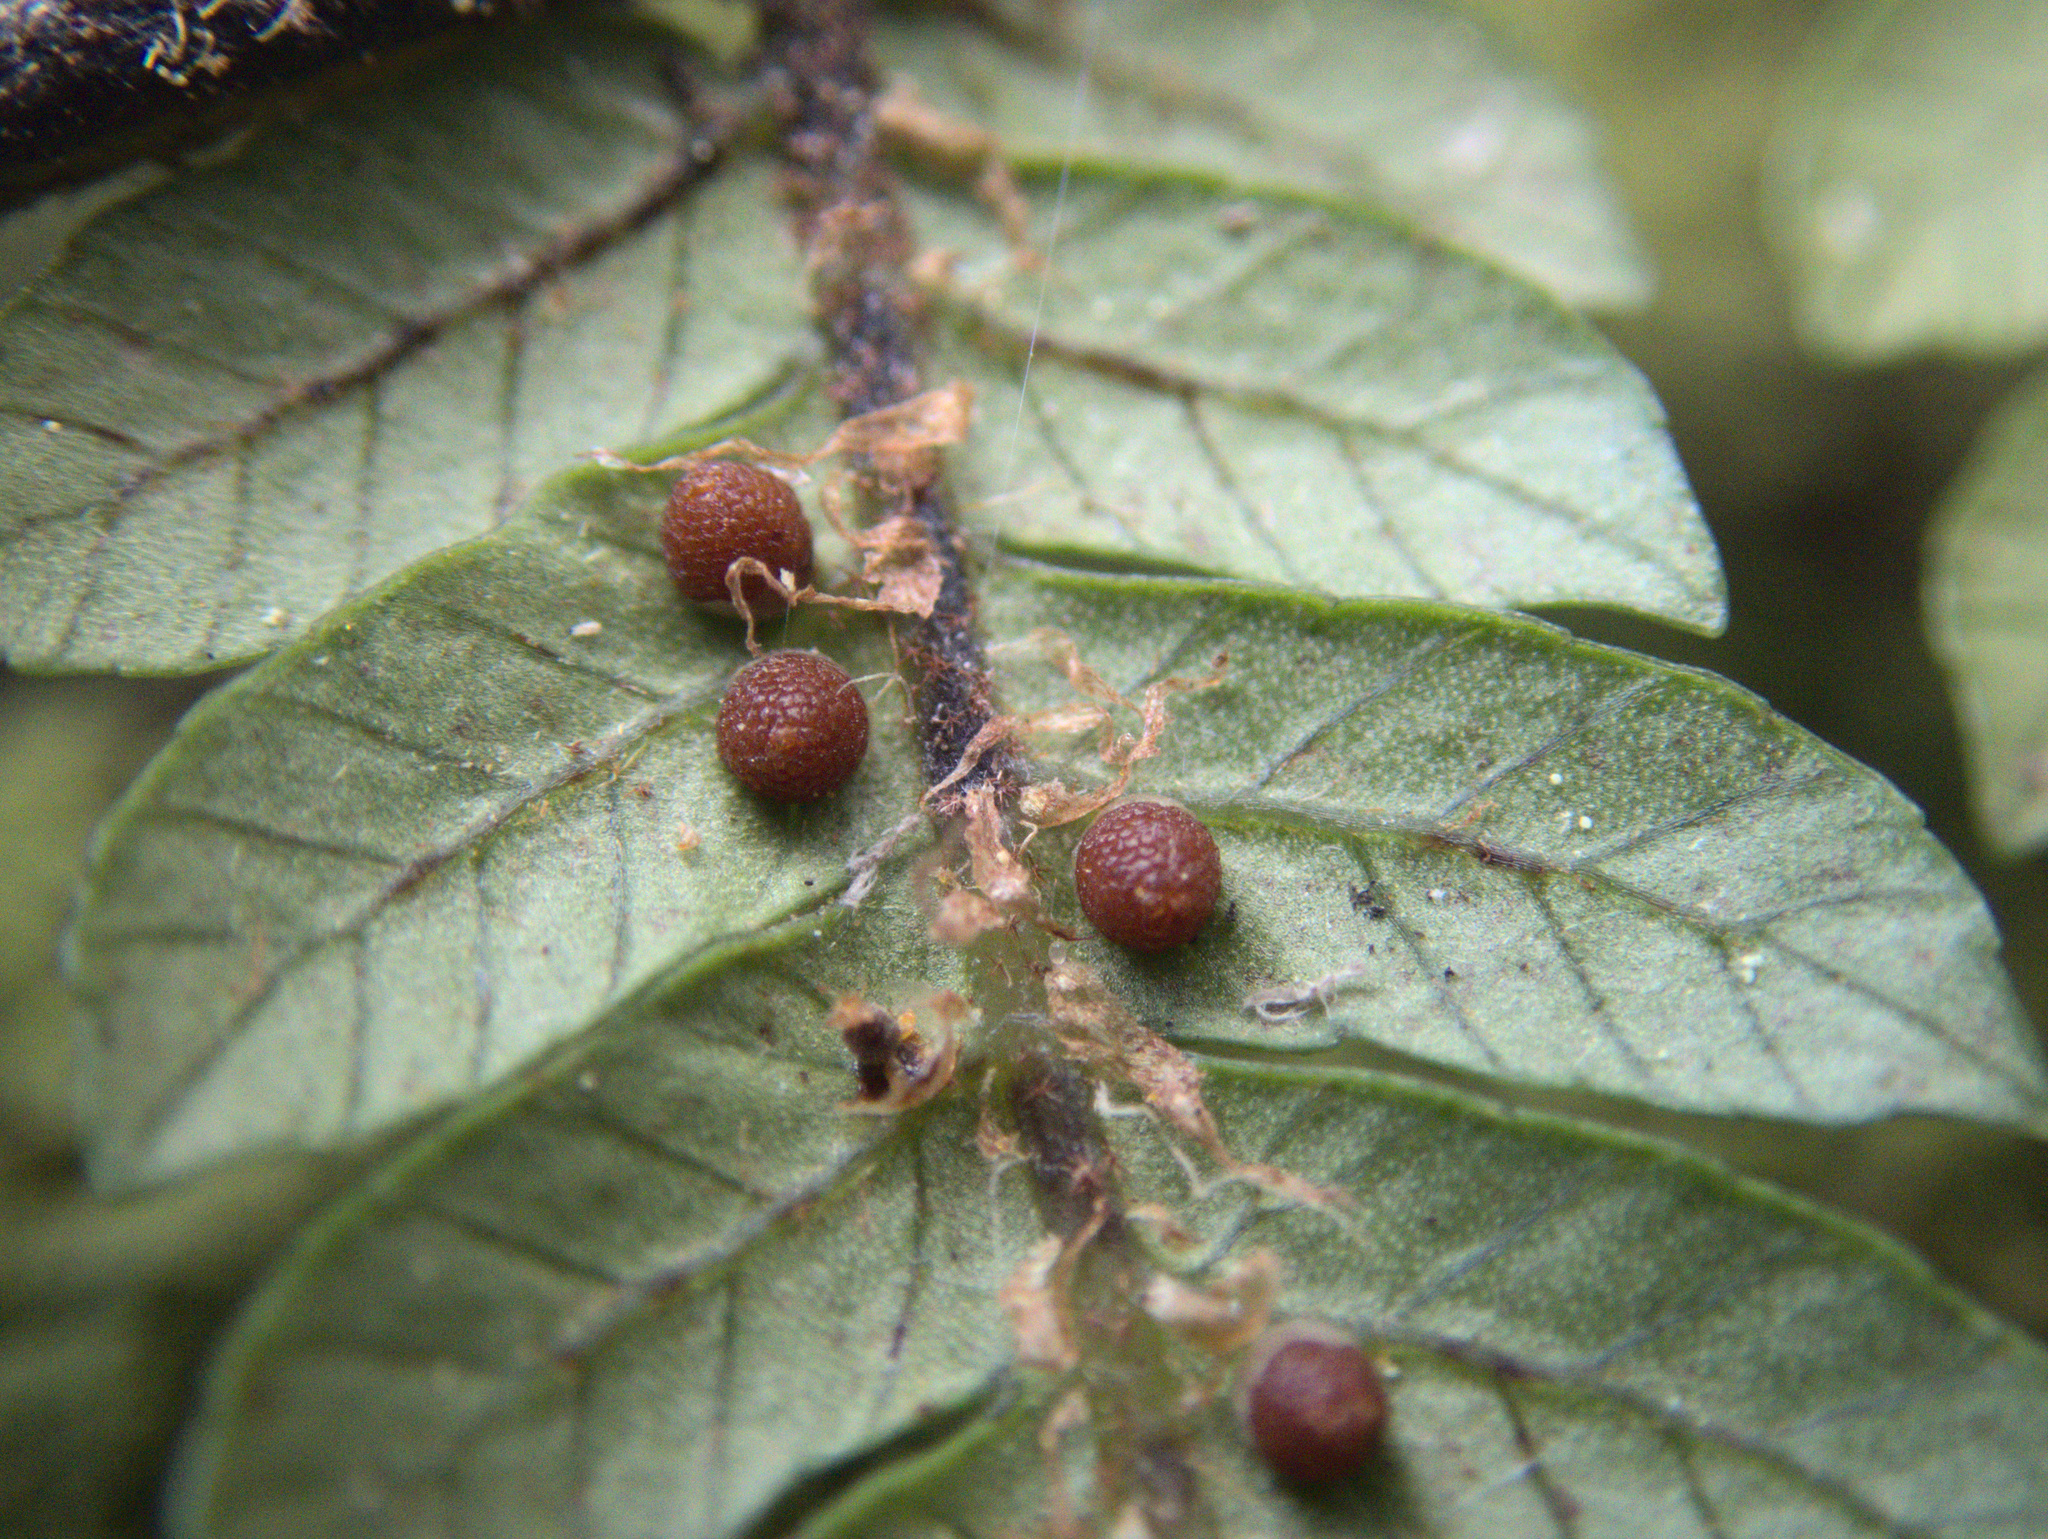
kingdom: Plantae
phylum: Tracheophyta
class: Polypodiopsida
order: Cyatheales
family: Cyatheaceae
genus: Alsophila
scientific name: Alsophila smithii
